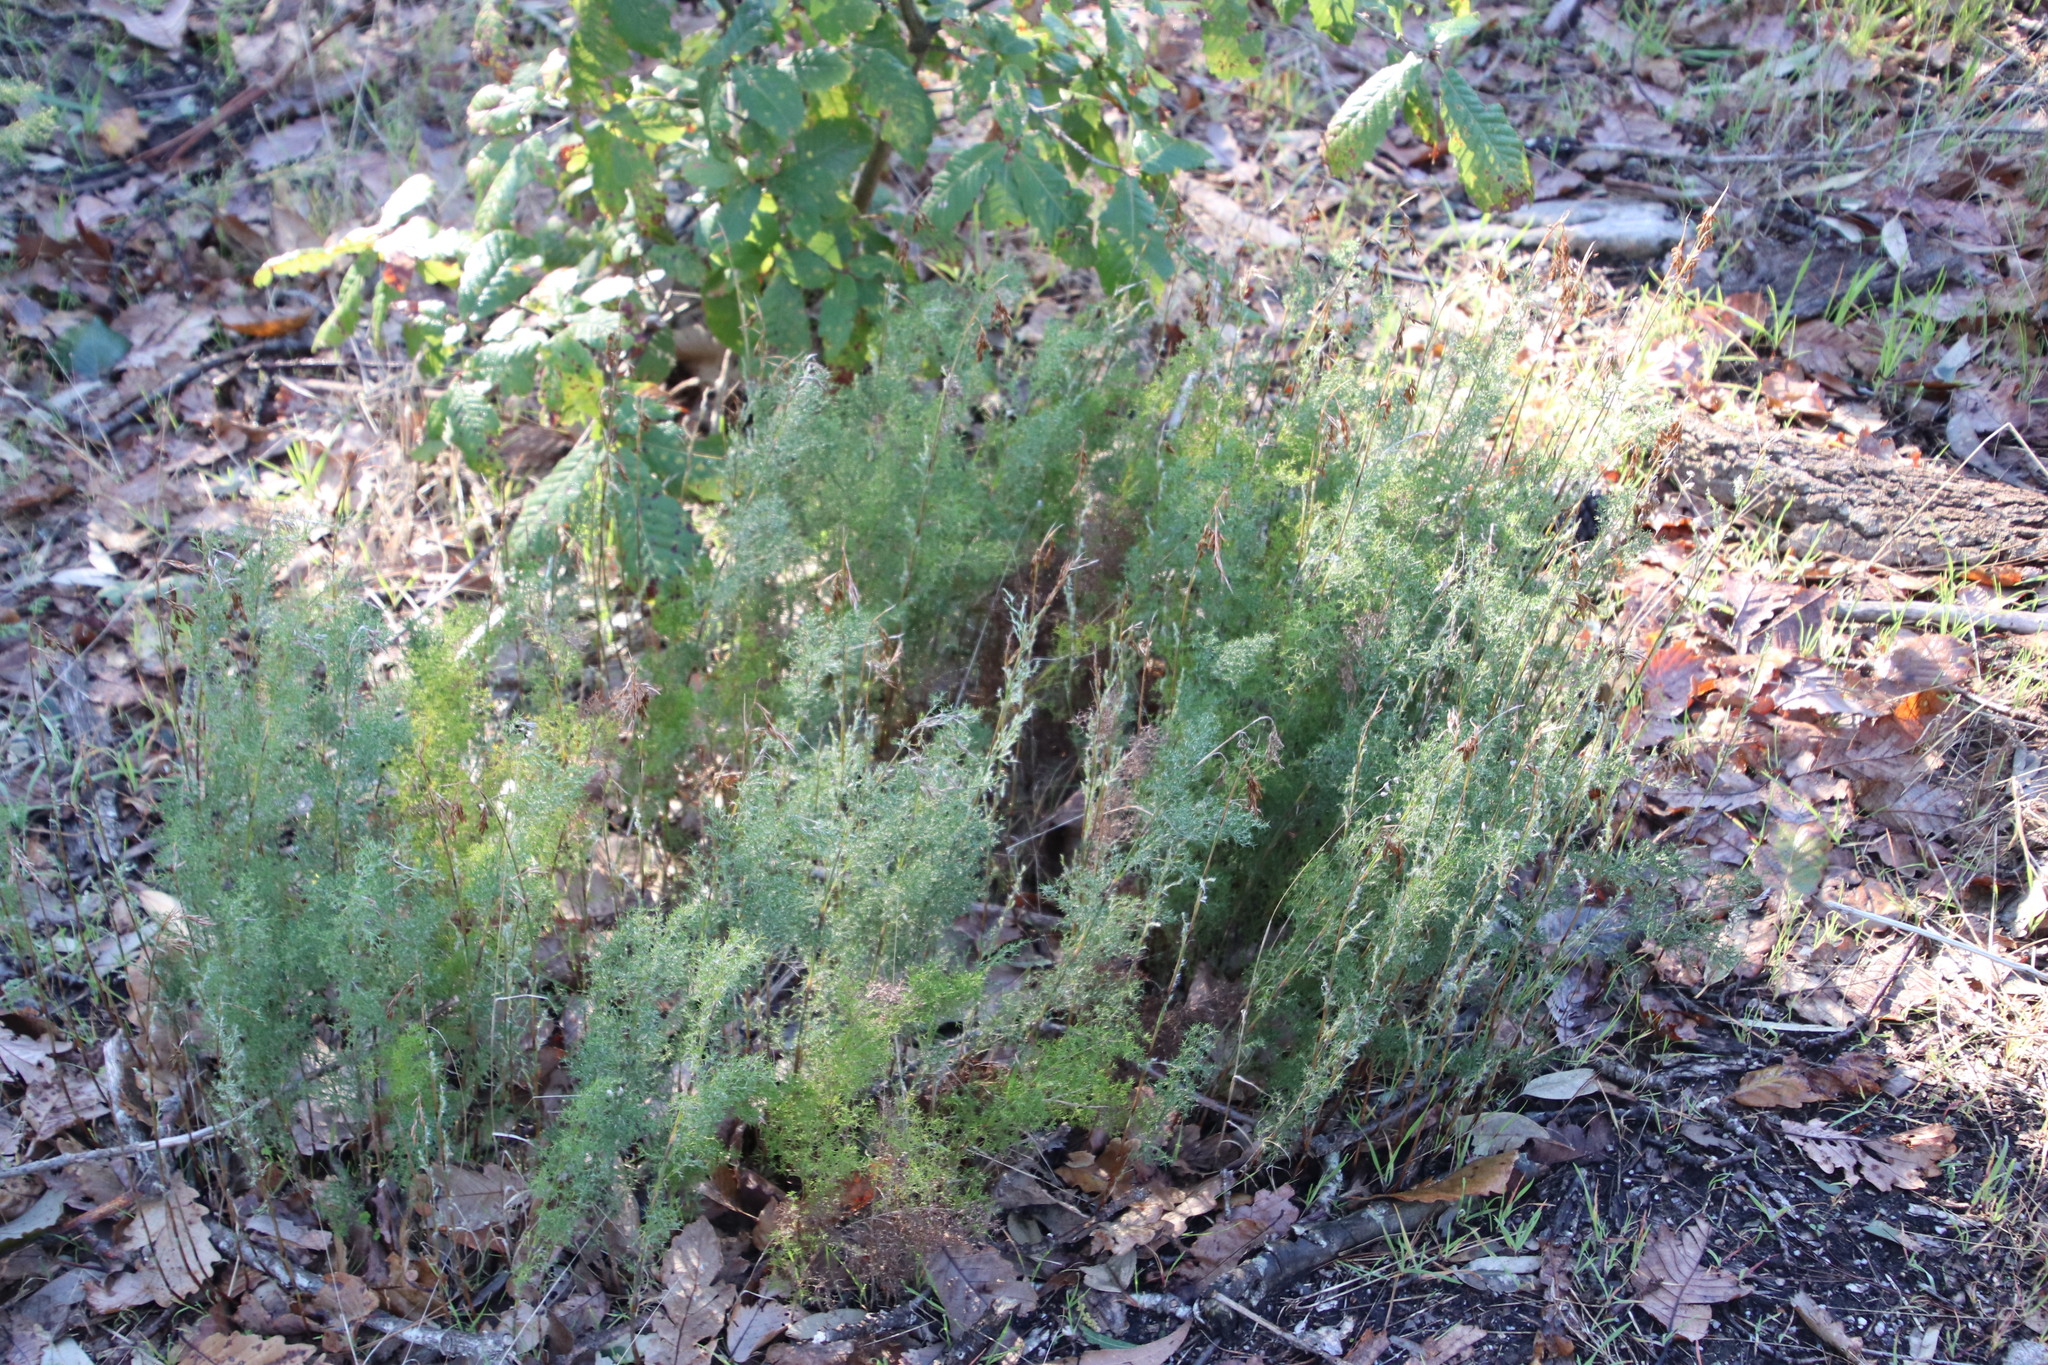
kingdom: Plantae
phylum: Tracheophyta
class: Liliopsida
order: Poales
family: Restionaceae
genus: Thamnochortus
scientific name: Thamnochortus fruticosus
